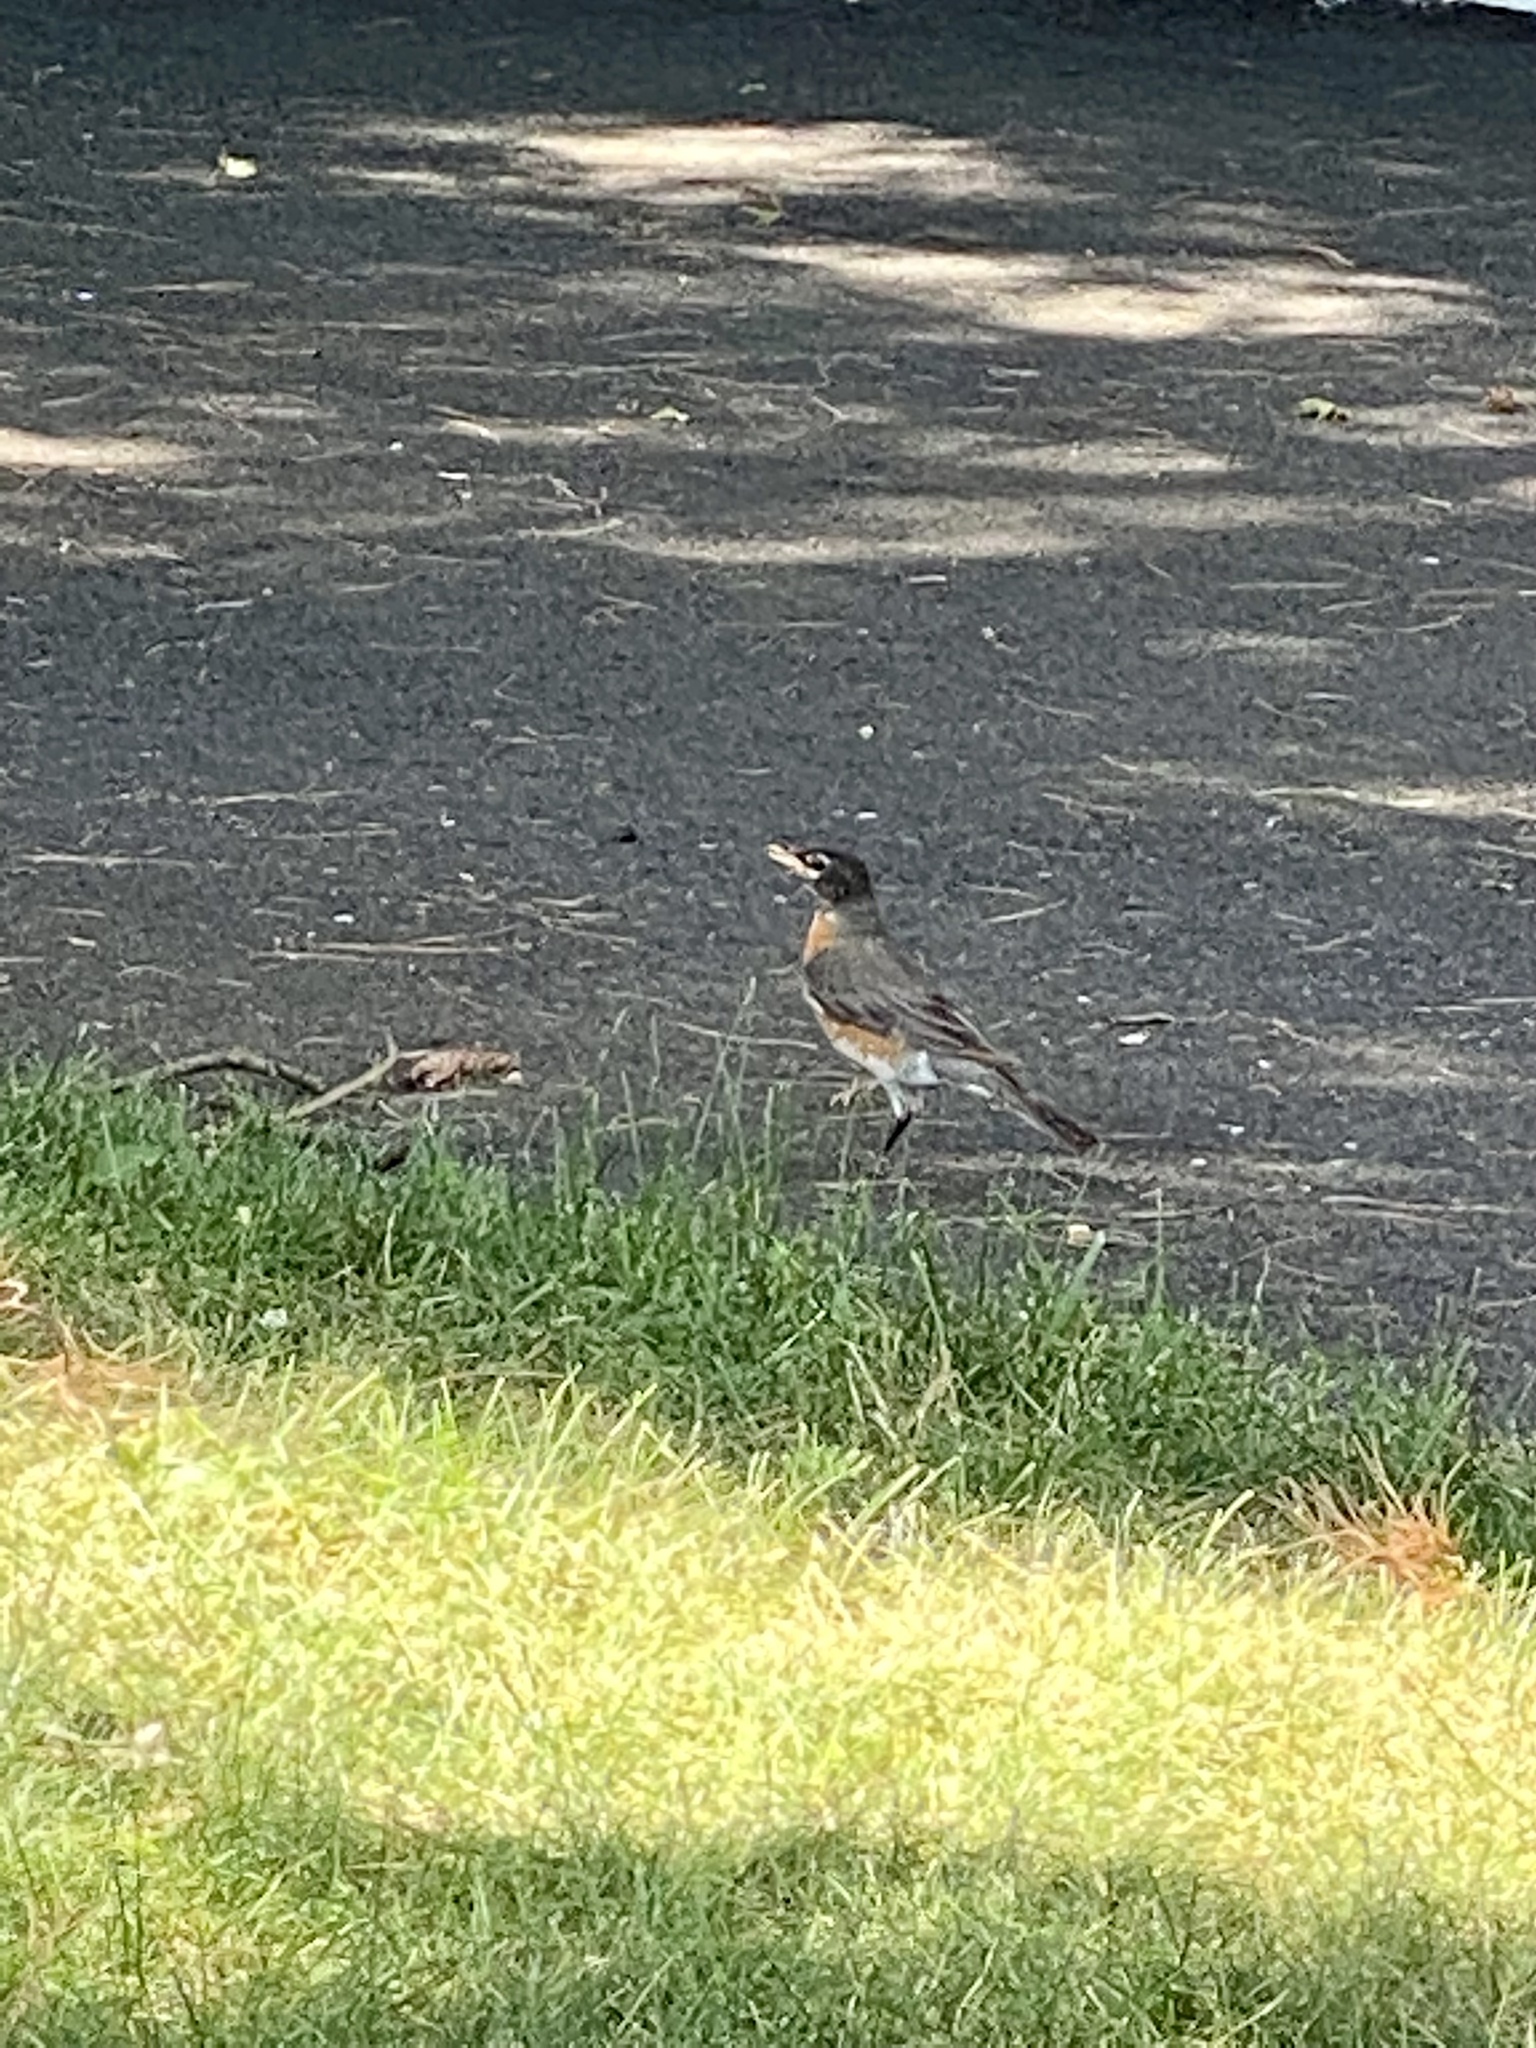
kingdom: Animalia
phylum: Chordata
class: Aves
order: Passeriformes
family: Turdidae
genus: Turdus
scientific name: Turdus migratorius
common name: American robin
